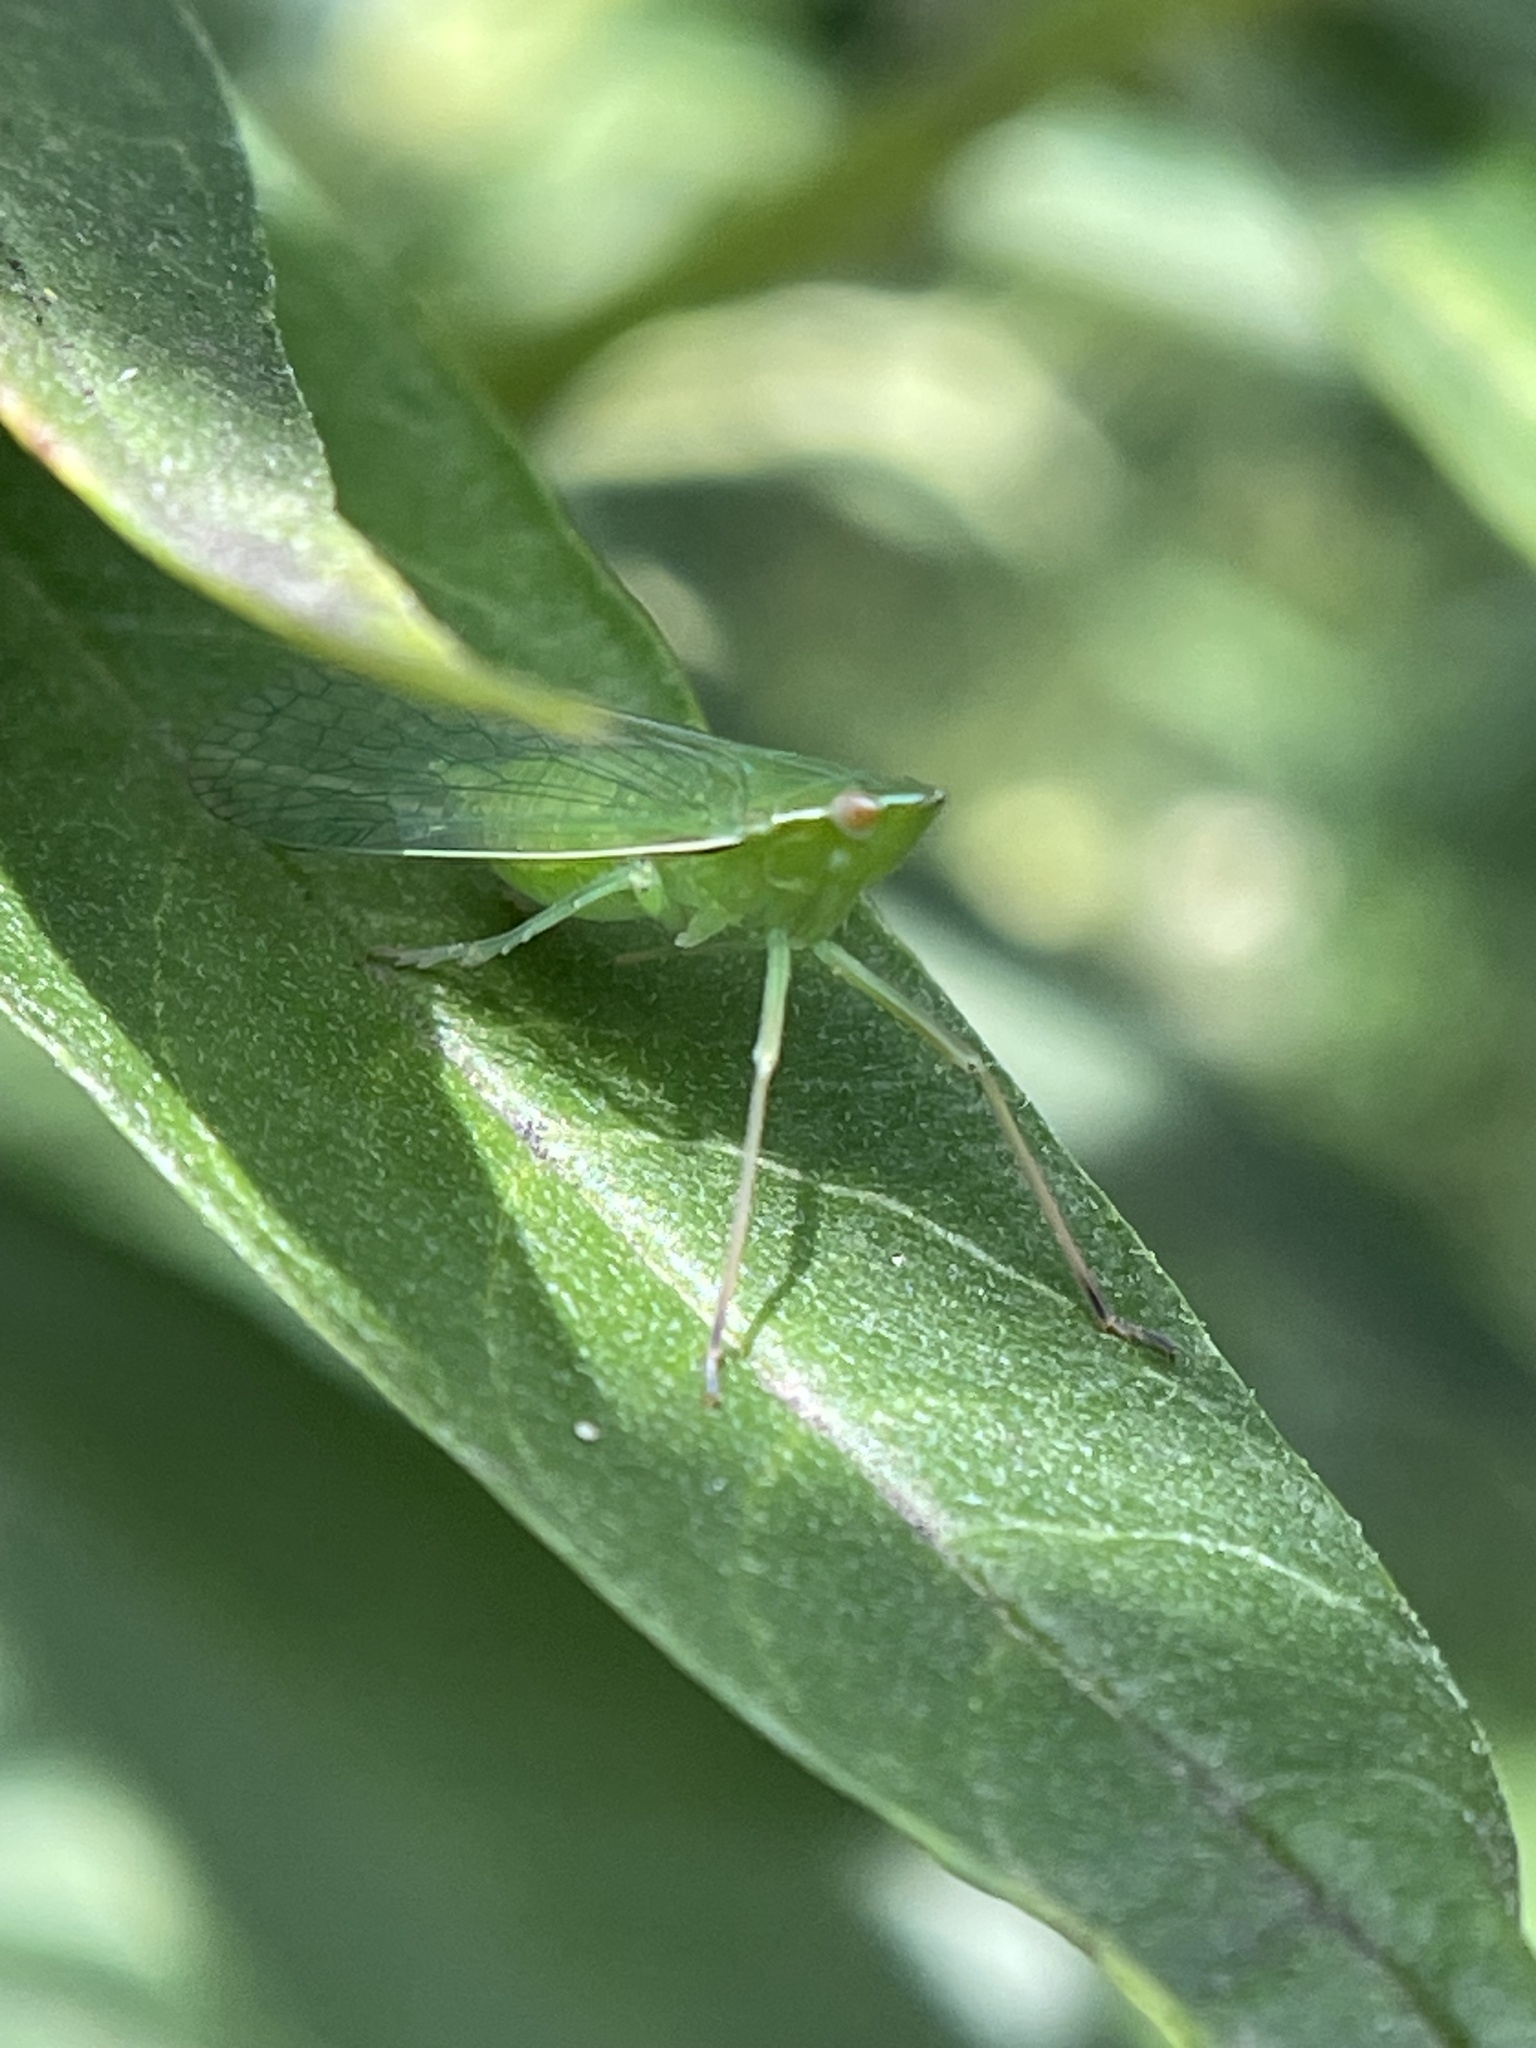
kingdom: Animalia
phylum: Arthropoda
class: Insecta
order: Hemiptera
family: Dictyopharidae
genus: Nersia
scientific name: Nersia florida
